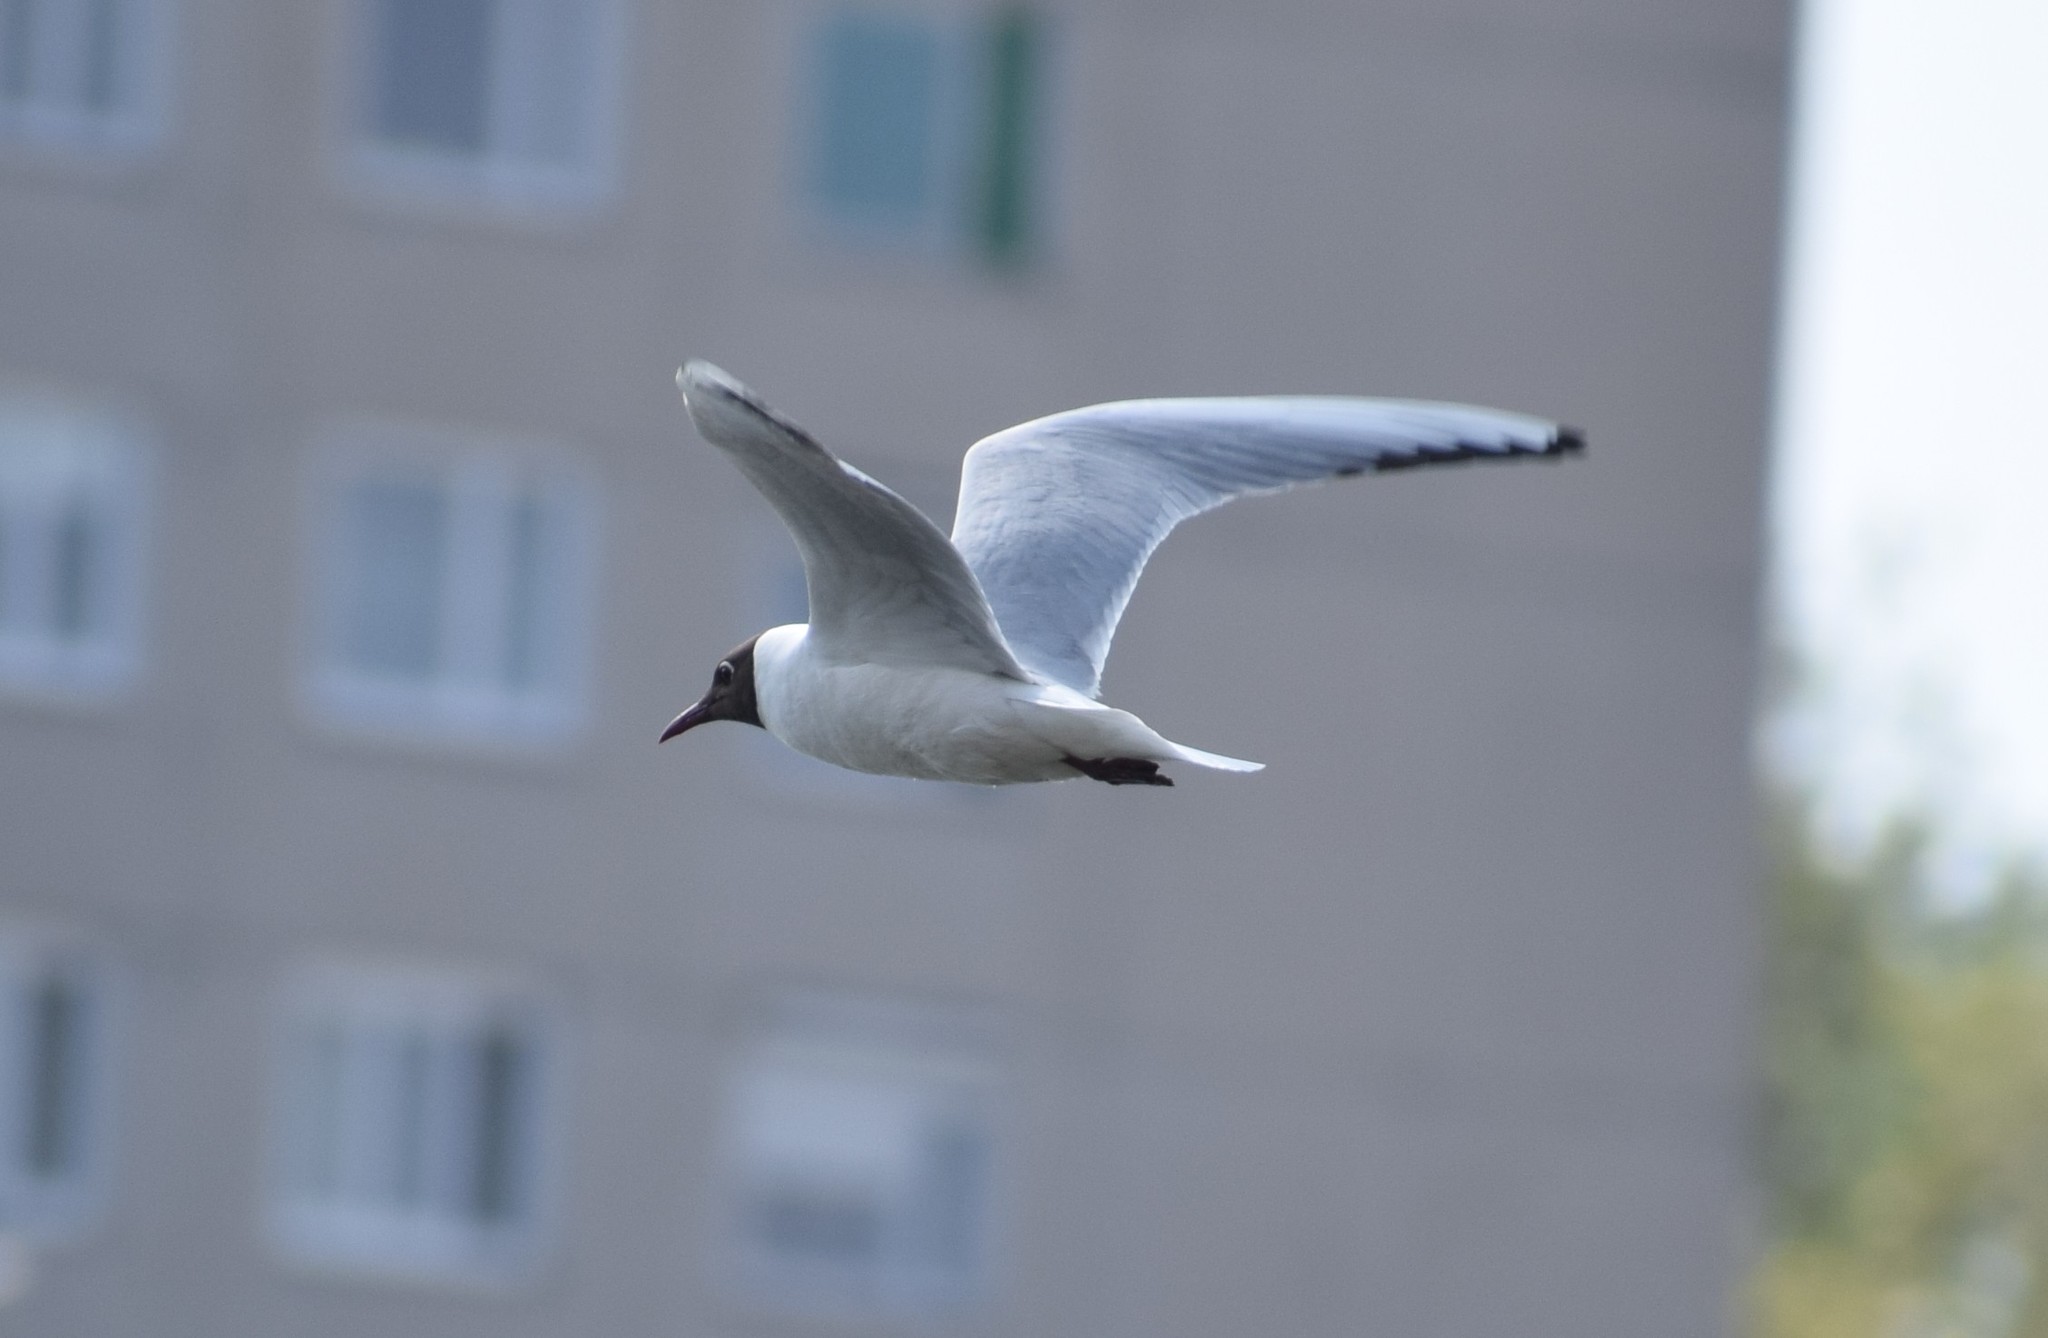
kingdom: Animalia
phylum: Chordata
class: Aves
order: Charadriiformes
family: Laridae
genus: Chroicocephalus
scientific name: Chroicocephalus ridibundus
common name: Black-headed gull
